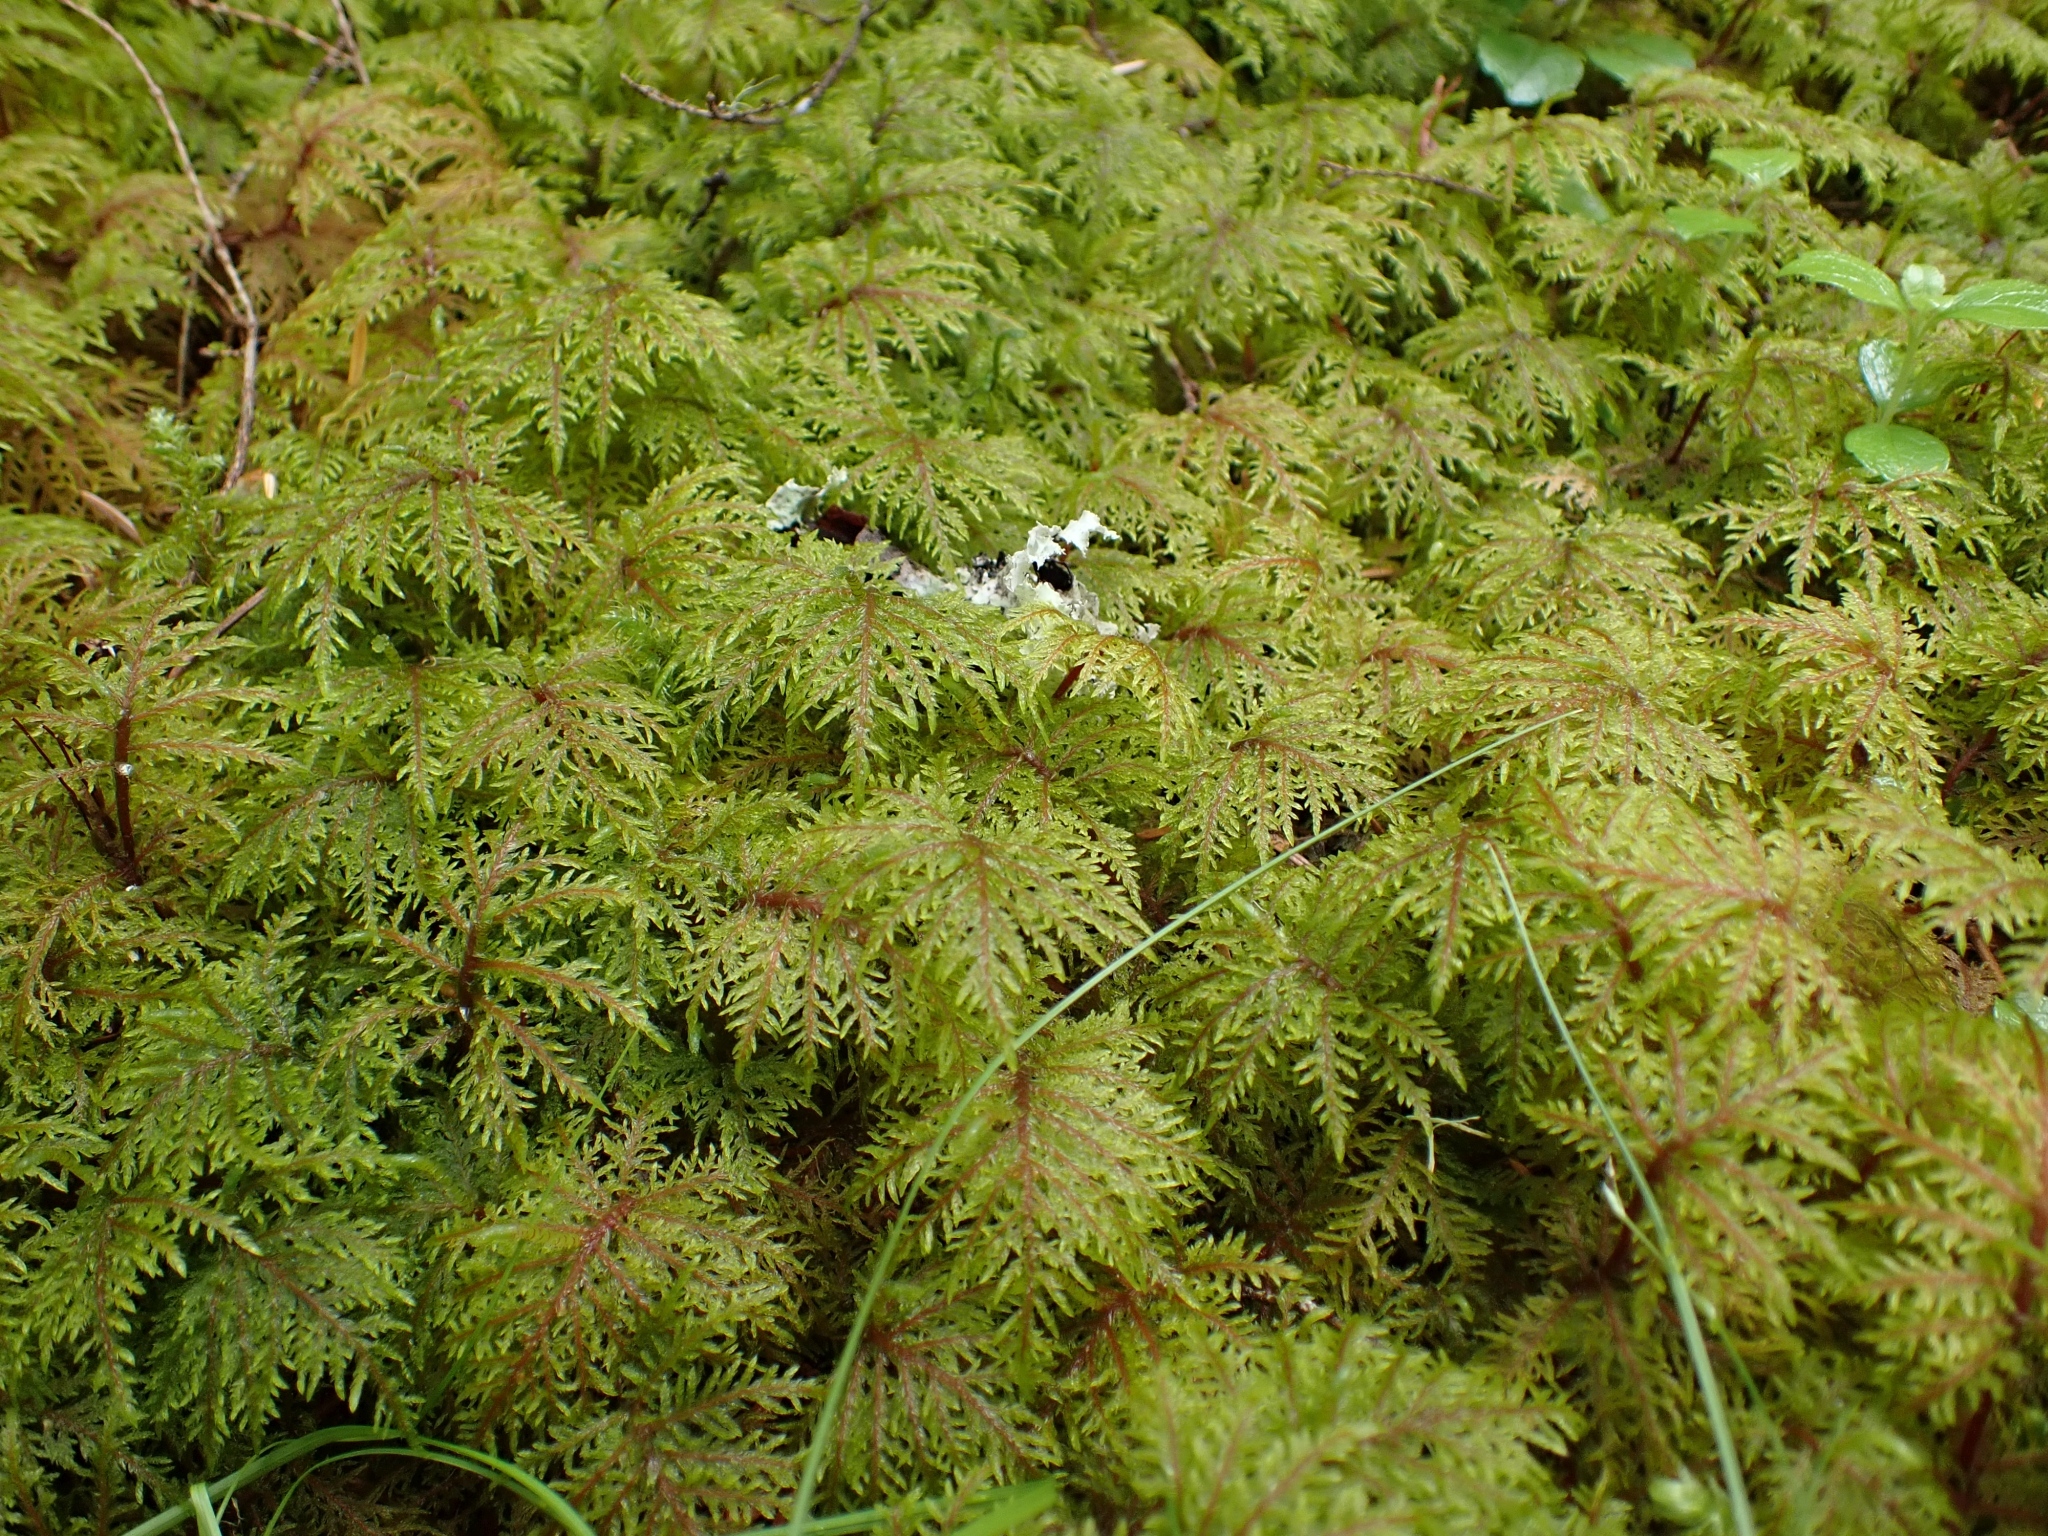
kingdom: Plantae
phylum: Bryophyta
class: Bryopsida
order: Hypnales
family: Hylocomiaceae
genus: Hylocomium
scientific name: Hylocomium splendens
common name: Stairstep moss
